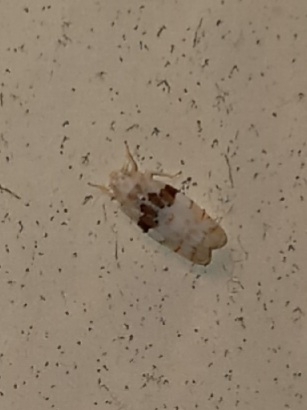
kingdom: Animalia
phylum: Arthropoda
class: Insecta
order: Hemiptera
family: Cicadellidae
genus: Hymetta
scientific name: Hymetta balteata
